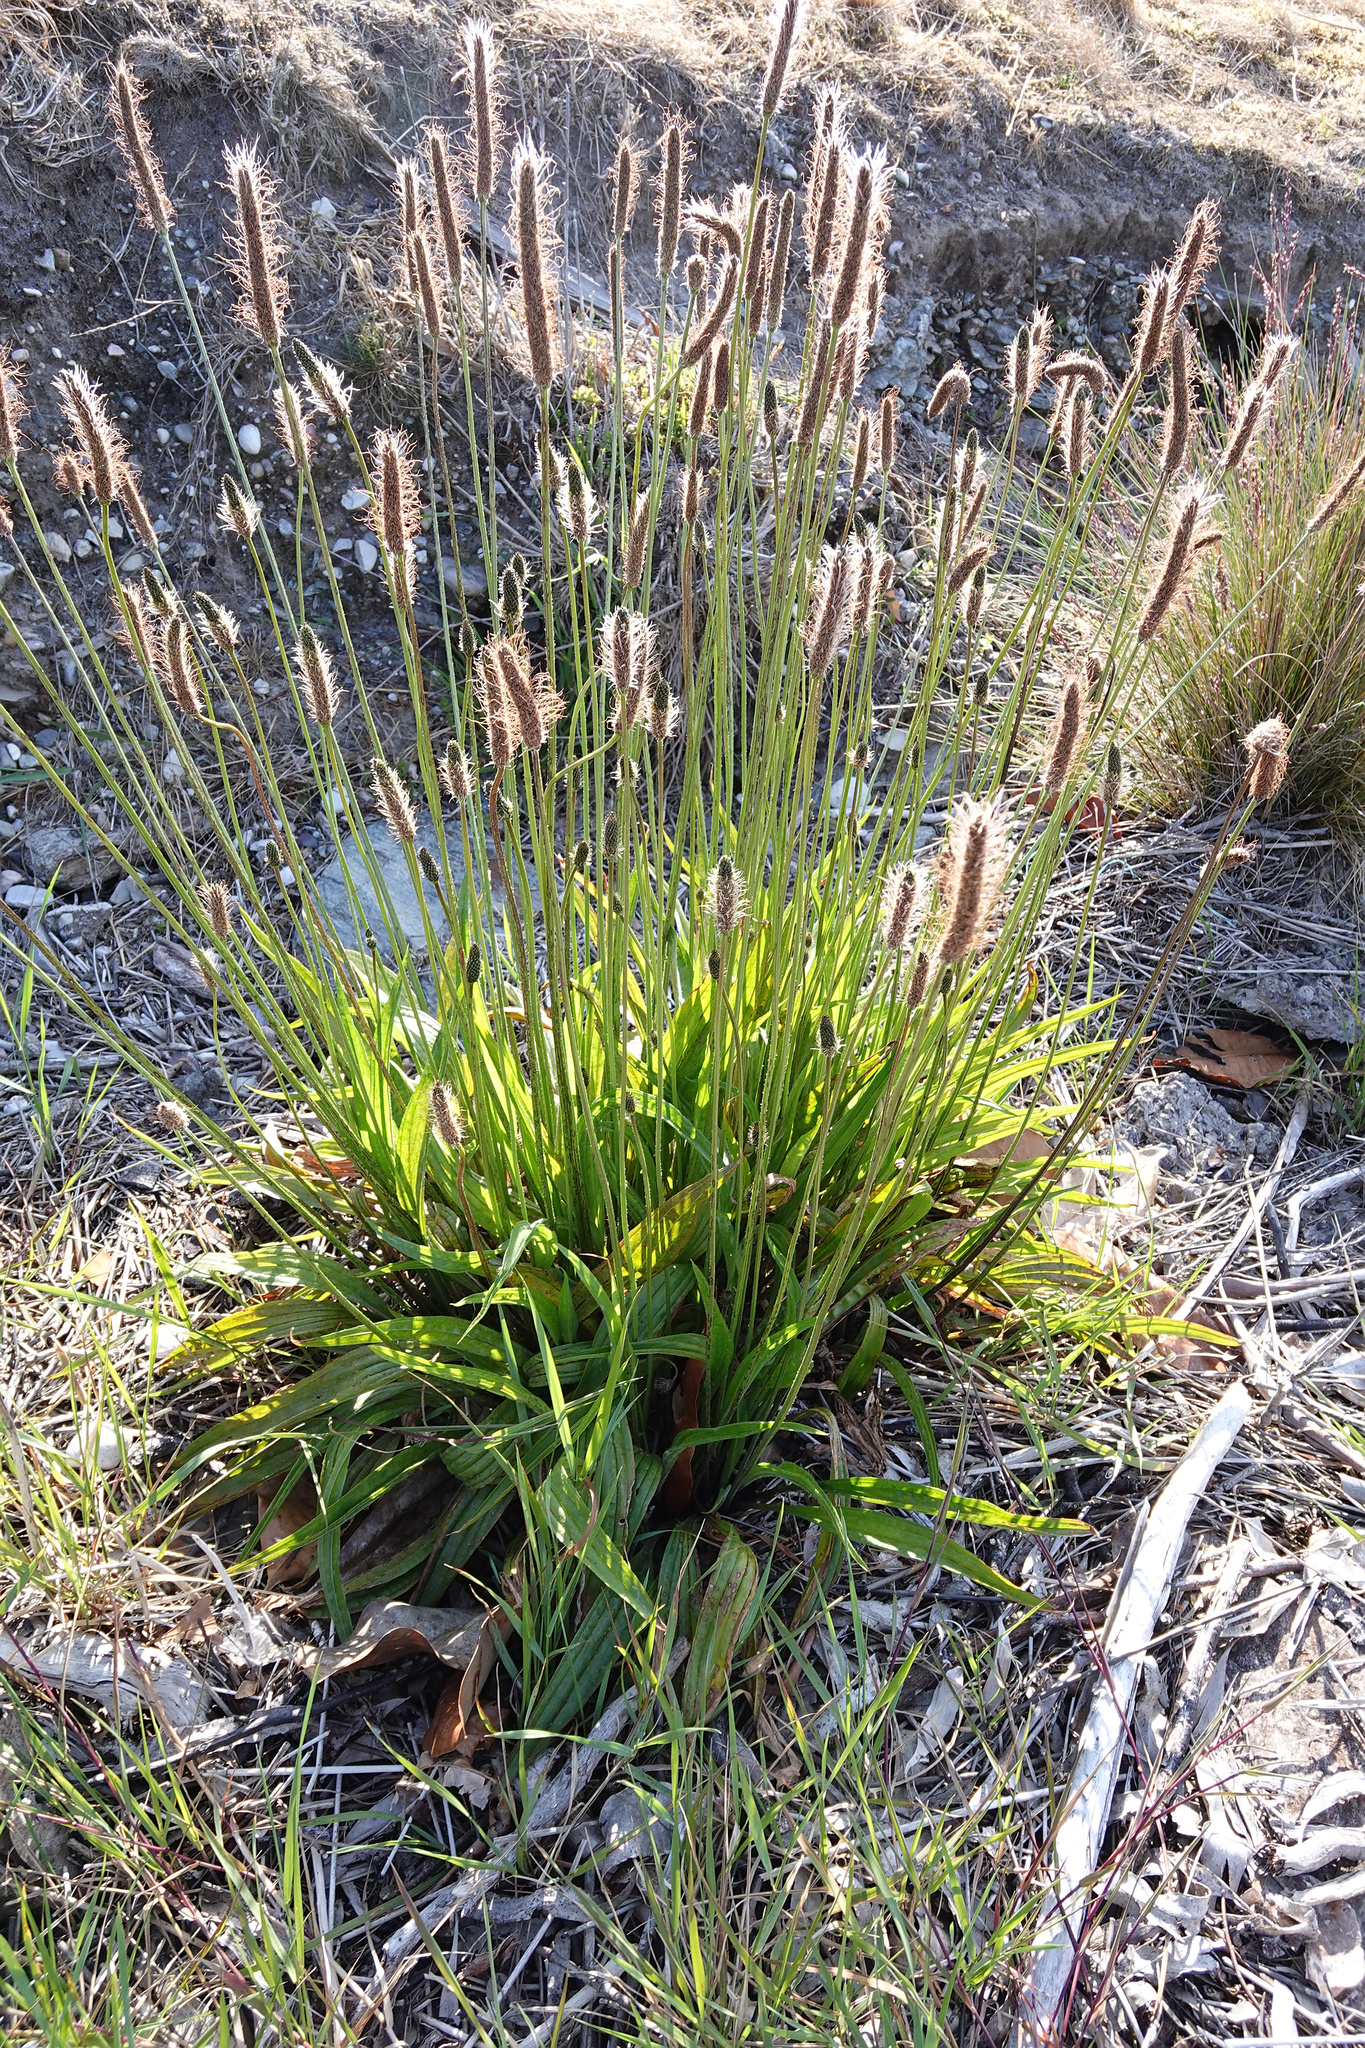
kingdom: Plantae
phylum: Tracheophyta
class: Magnoliopsida
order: Lamiales
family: Plantaginaceae
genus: Plantago
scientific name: Plantago lanceolata
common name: Ribwort plantain
